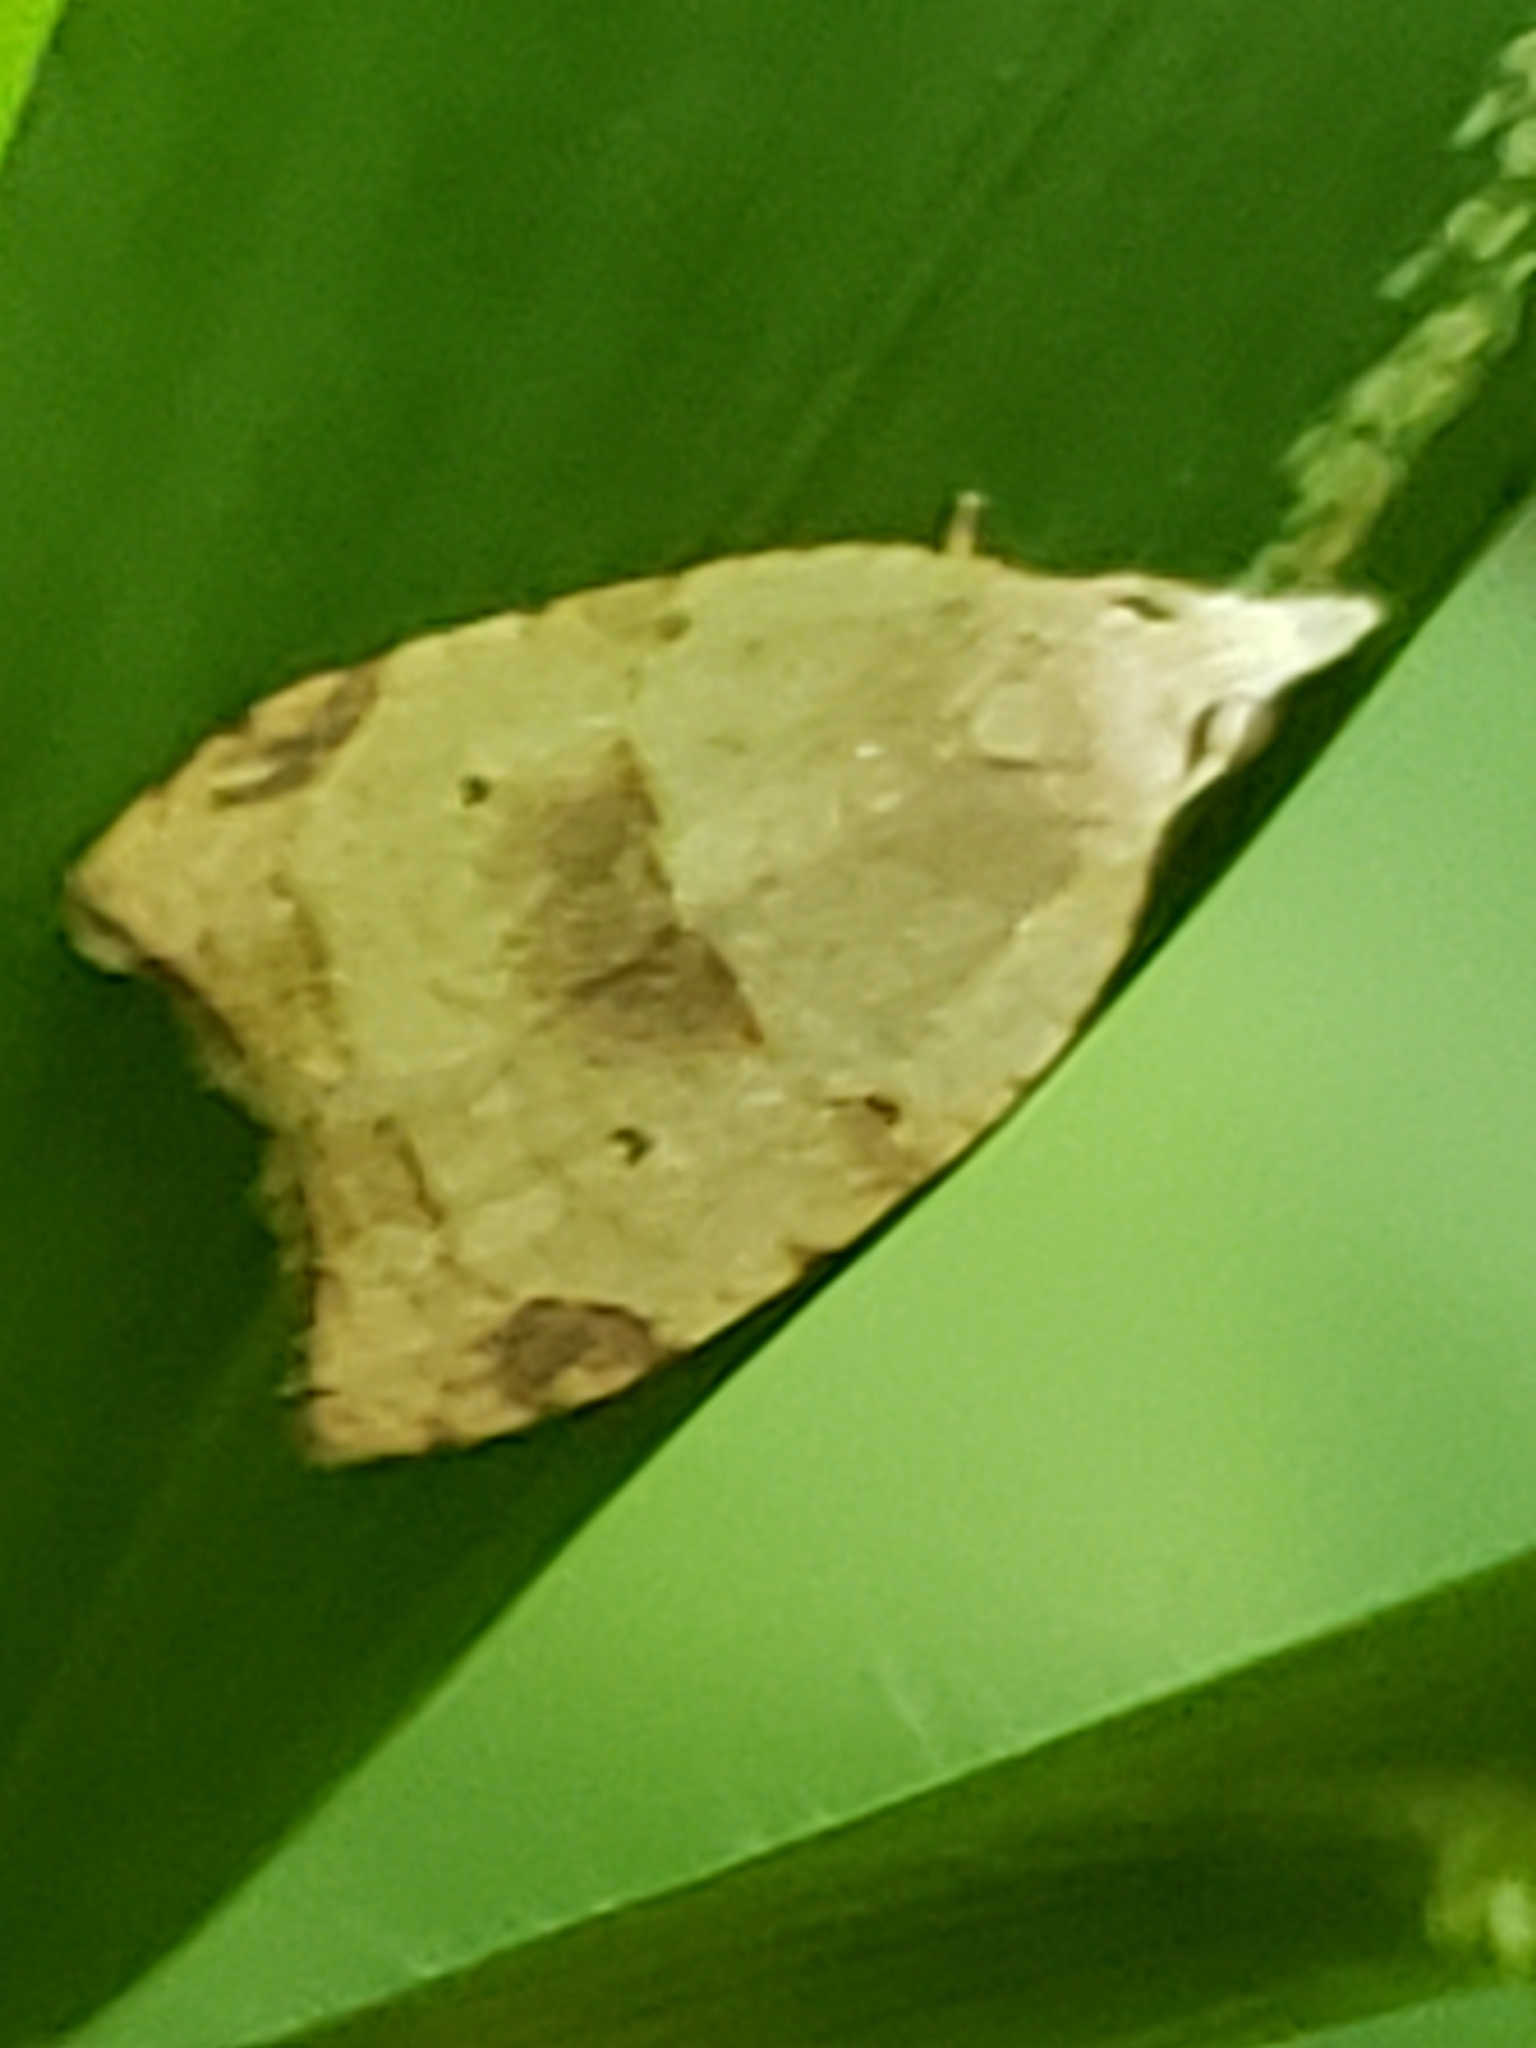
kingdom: Animalia
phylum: Arthropoda
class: Insecta
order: Lepidoptera
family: Tortricidae
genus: Coelostathma
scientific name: Coelostathma discopunctana
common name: Batman moth
